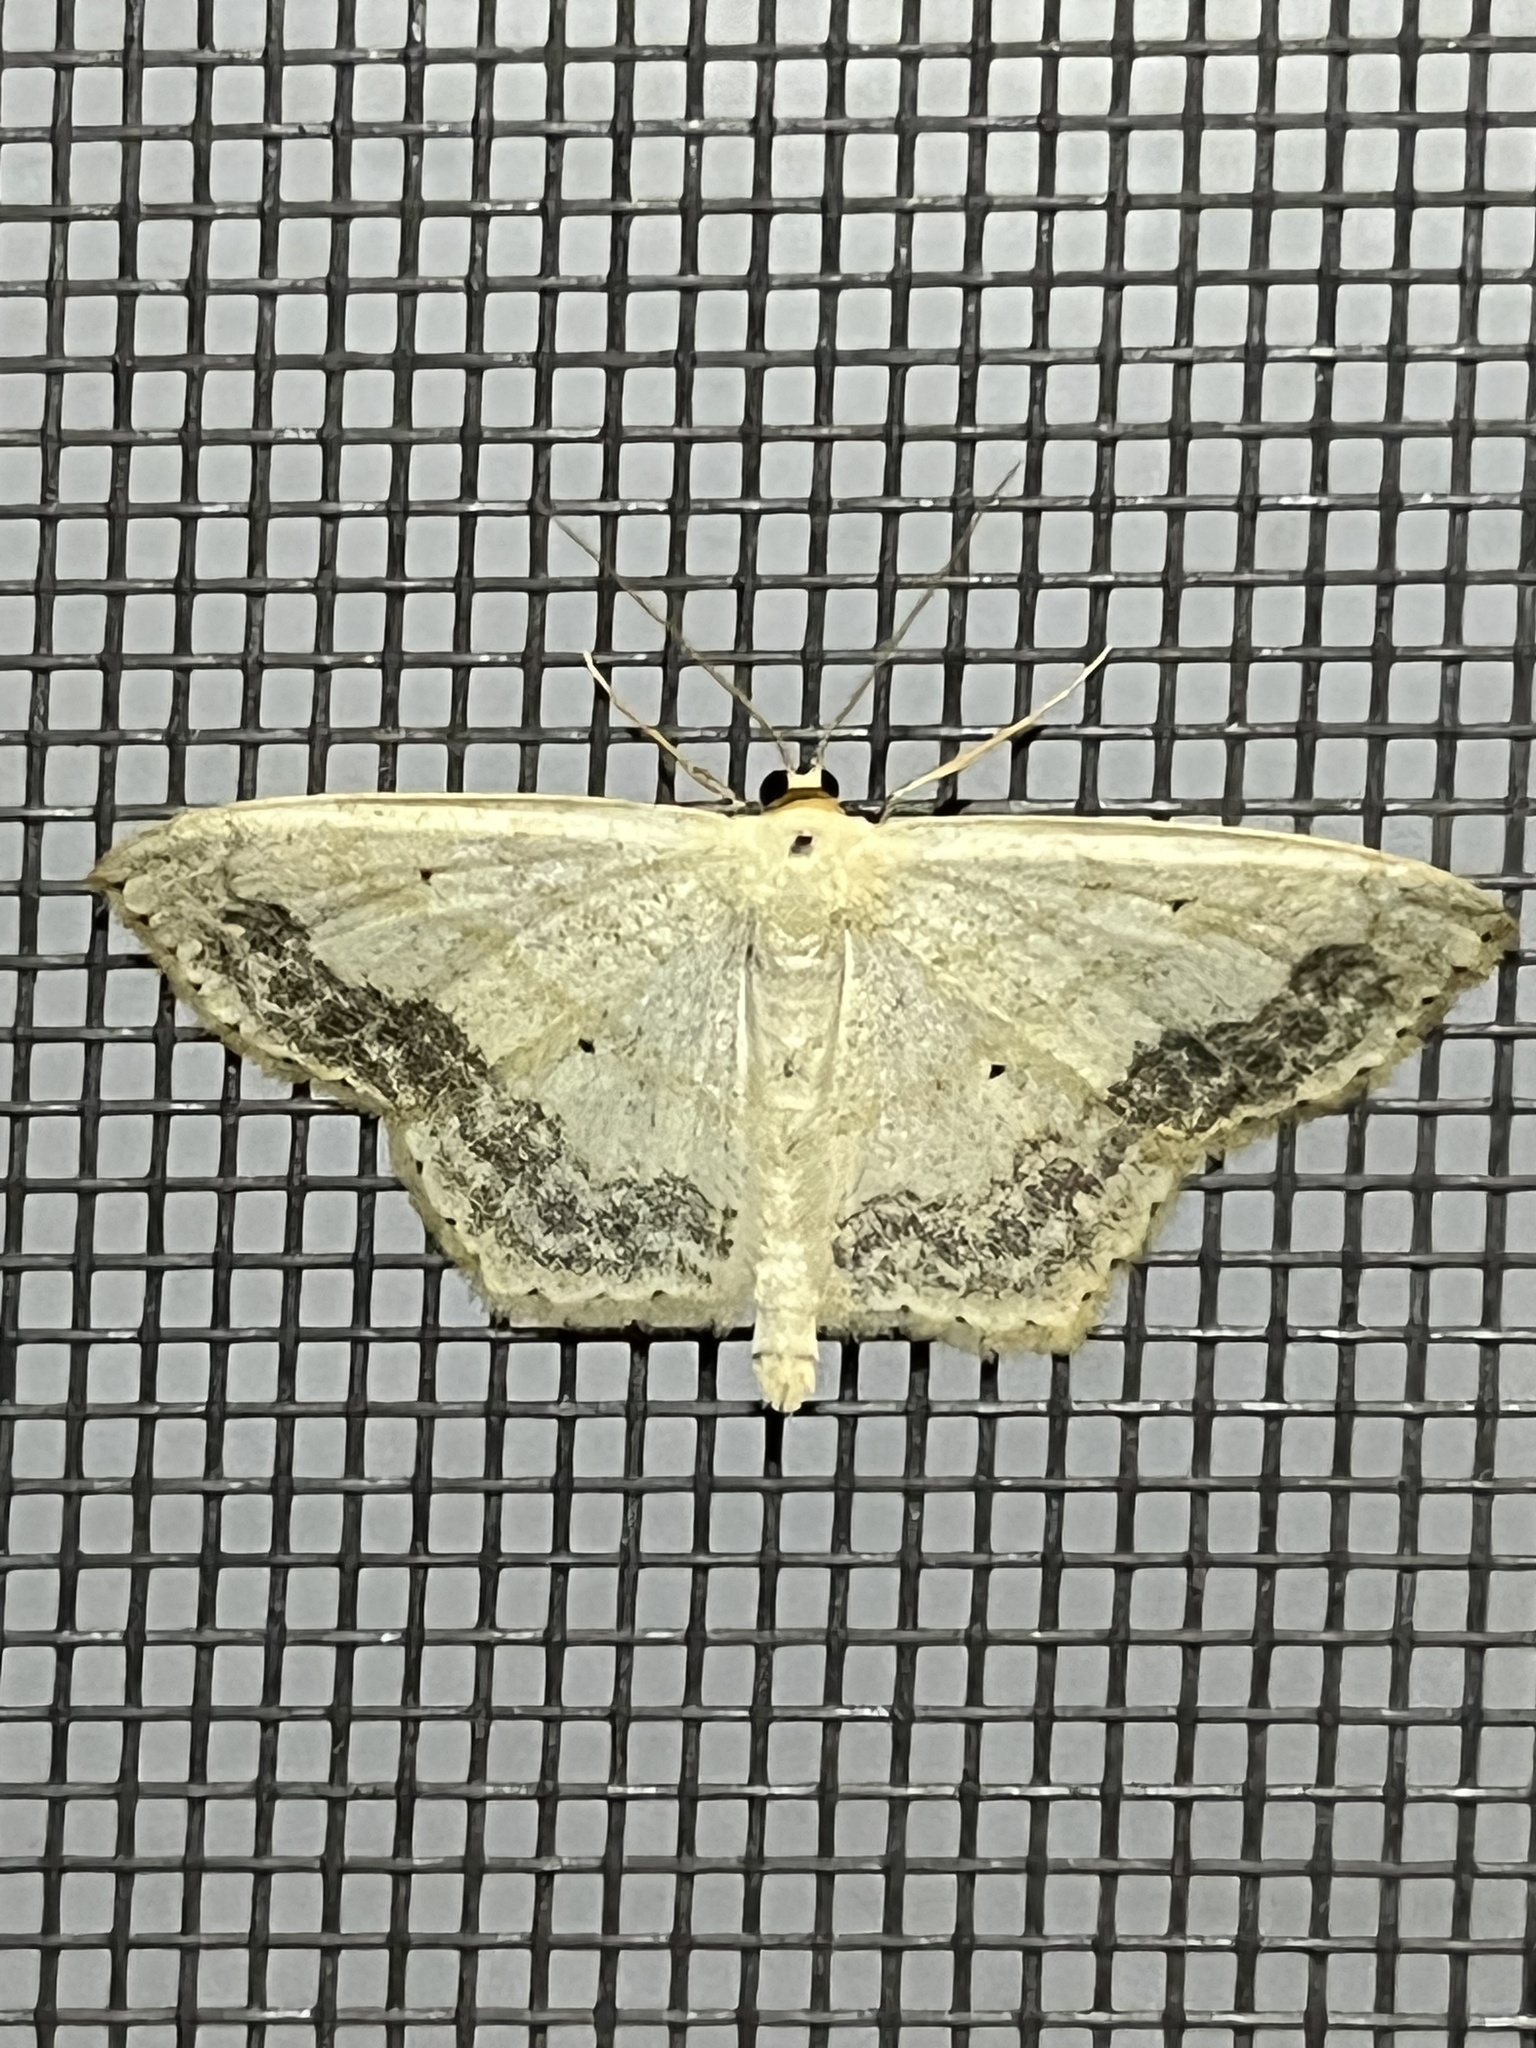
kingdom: Animalia
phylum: Arthropoda
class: Insecta
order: Lepidoptera
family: Geometridae
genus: Scopula
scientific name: Scopula limboundata
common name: Large lace border
